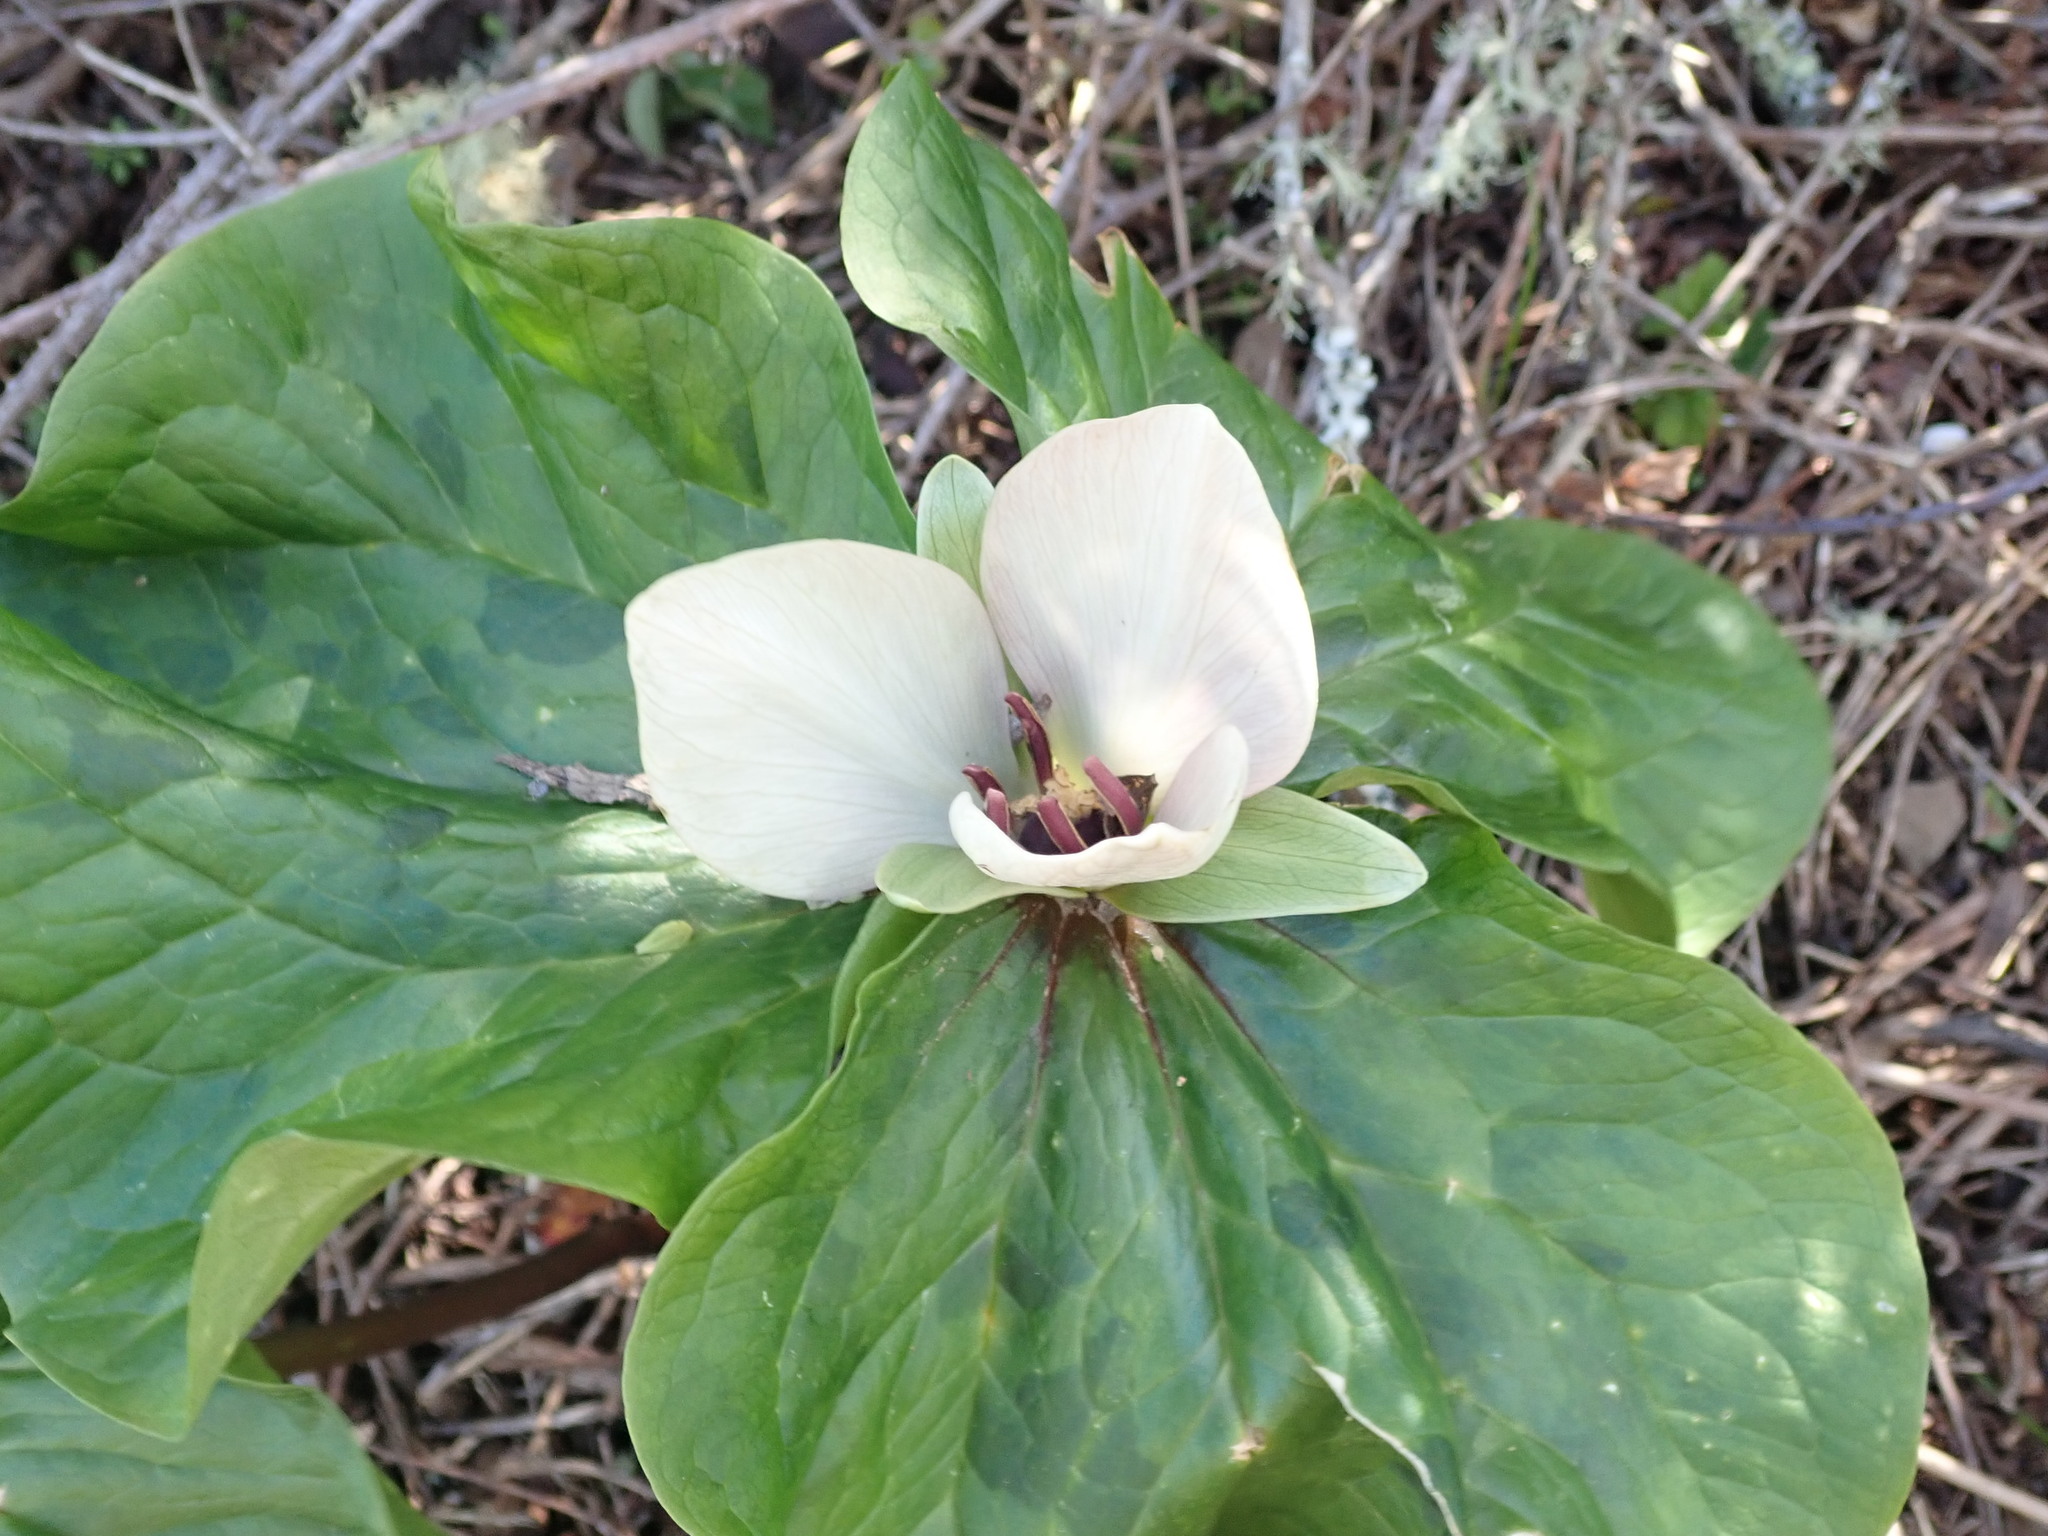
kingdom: Plantae
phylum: Tracheophyta
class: Liliopsida
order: Liliales
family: Melanthiaceae
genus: Trillium
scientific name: Trillium chloropetalum
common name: Giant trillium
